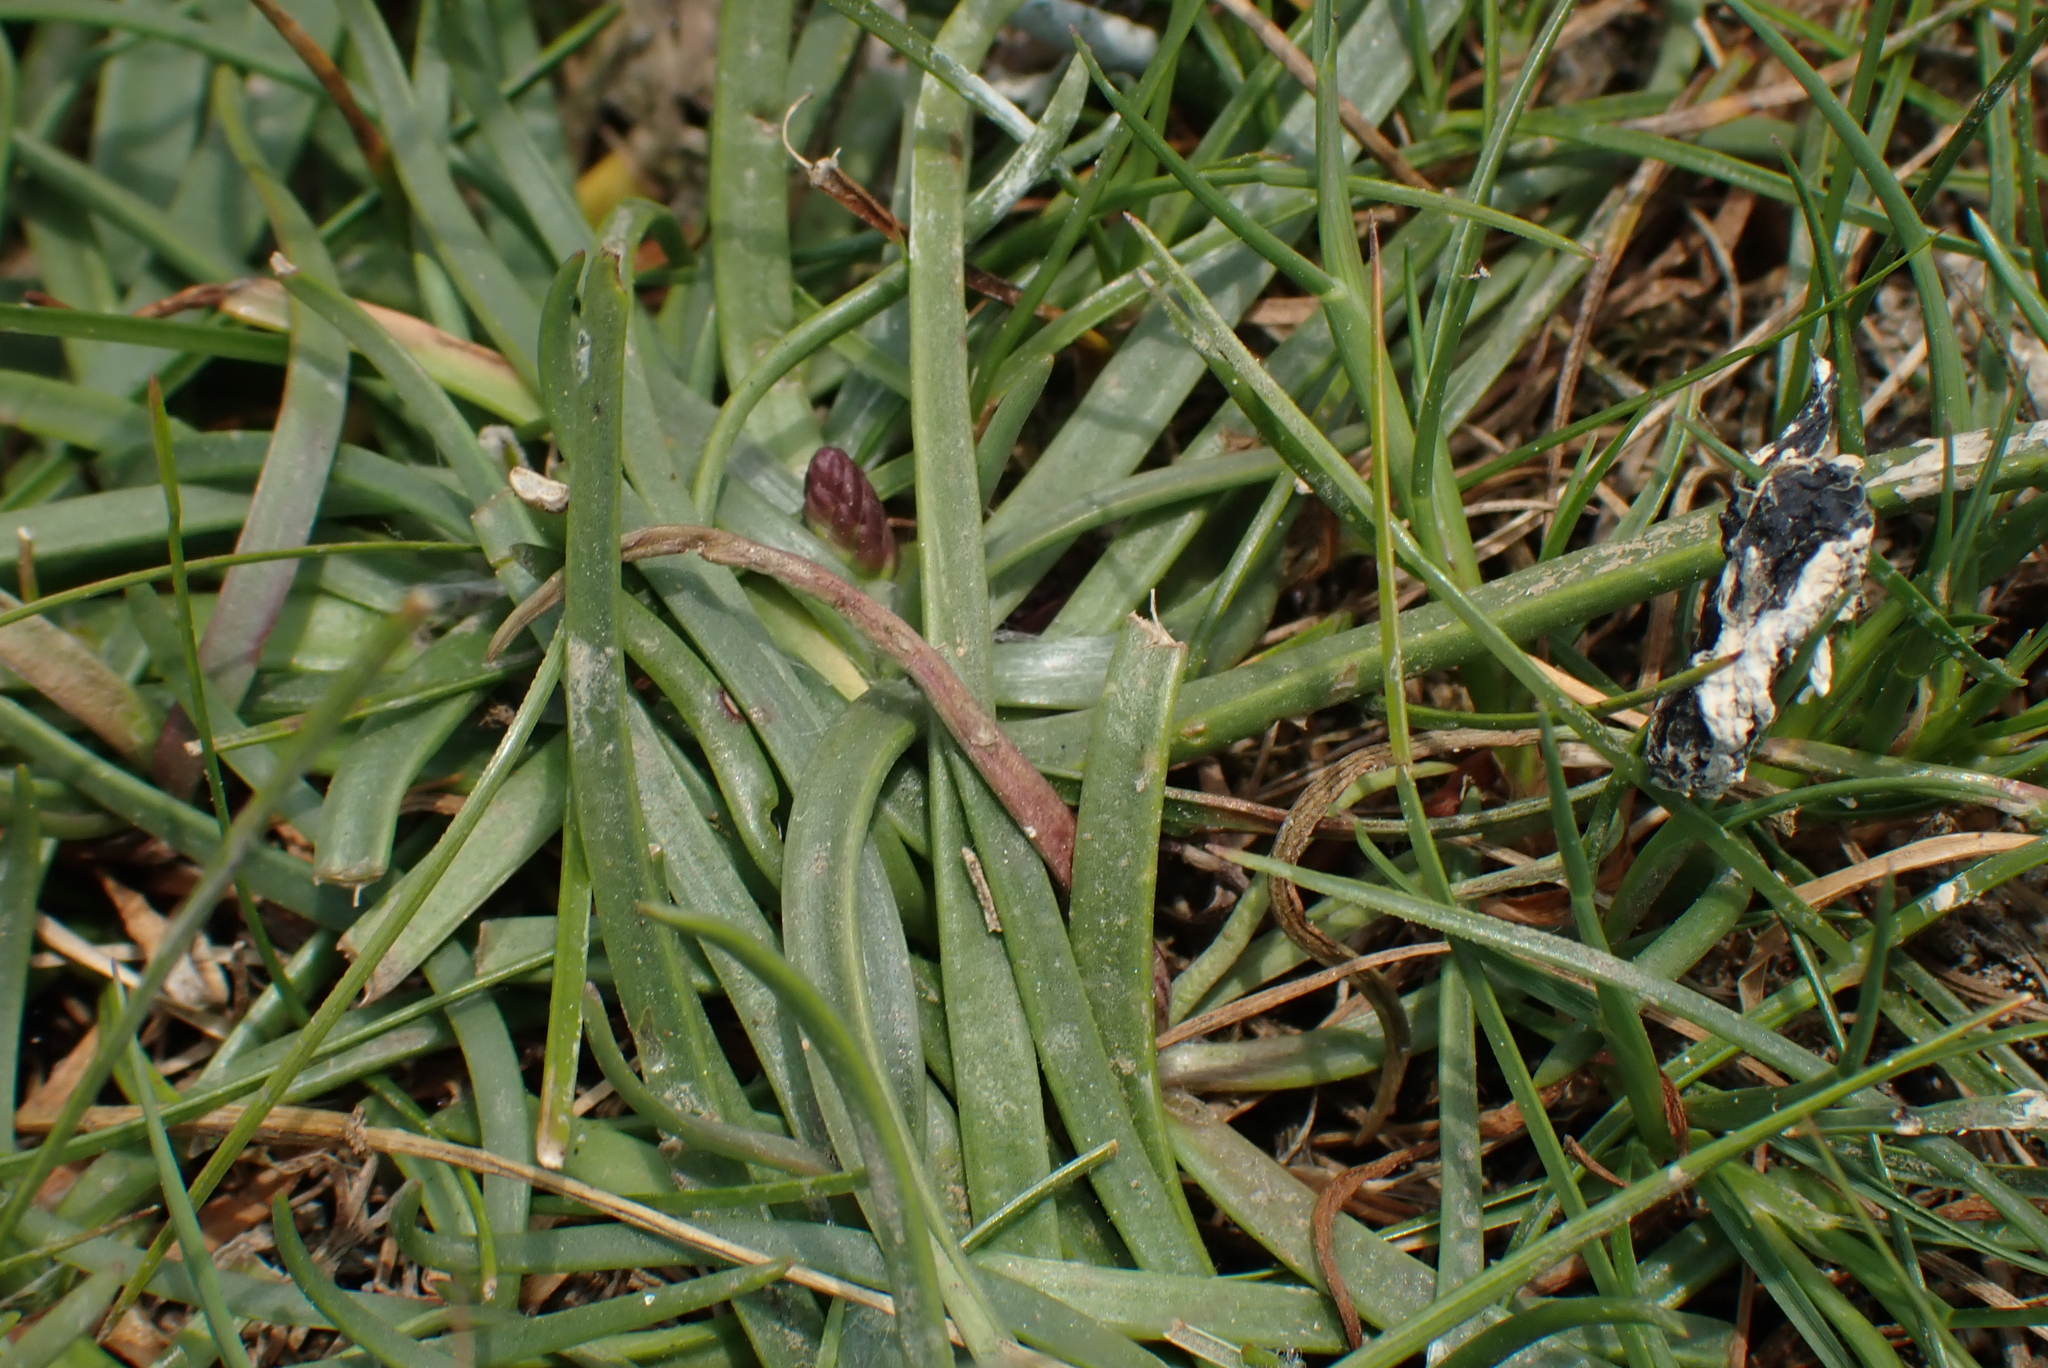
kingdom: Plantae
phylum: Tracheophyta
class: Magnoliopsida
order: Lamiales
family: Plantaginaceae
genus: Plantago
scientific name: Plantago maritima
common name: Sea plantain
